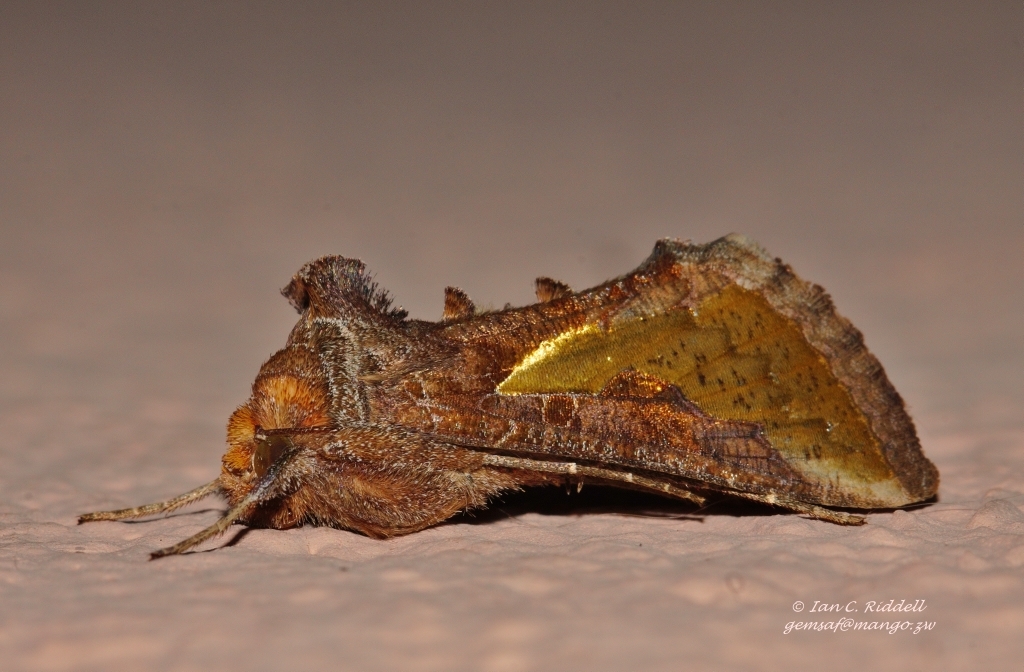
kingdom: Animalia
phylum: Arthropoda
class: Insecta
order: Lepidoptera
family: Noctuidae
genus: Thysanoplusia
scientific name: Thysanoplusia orichalcea
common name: Slender burnished brass, golden plusia
